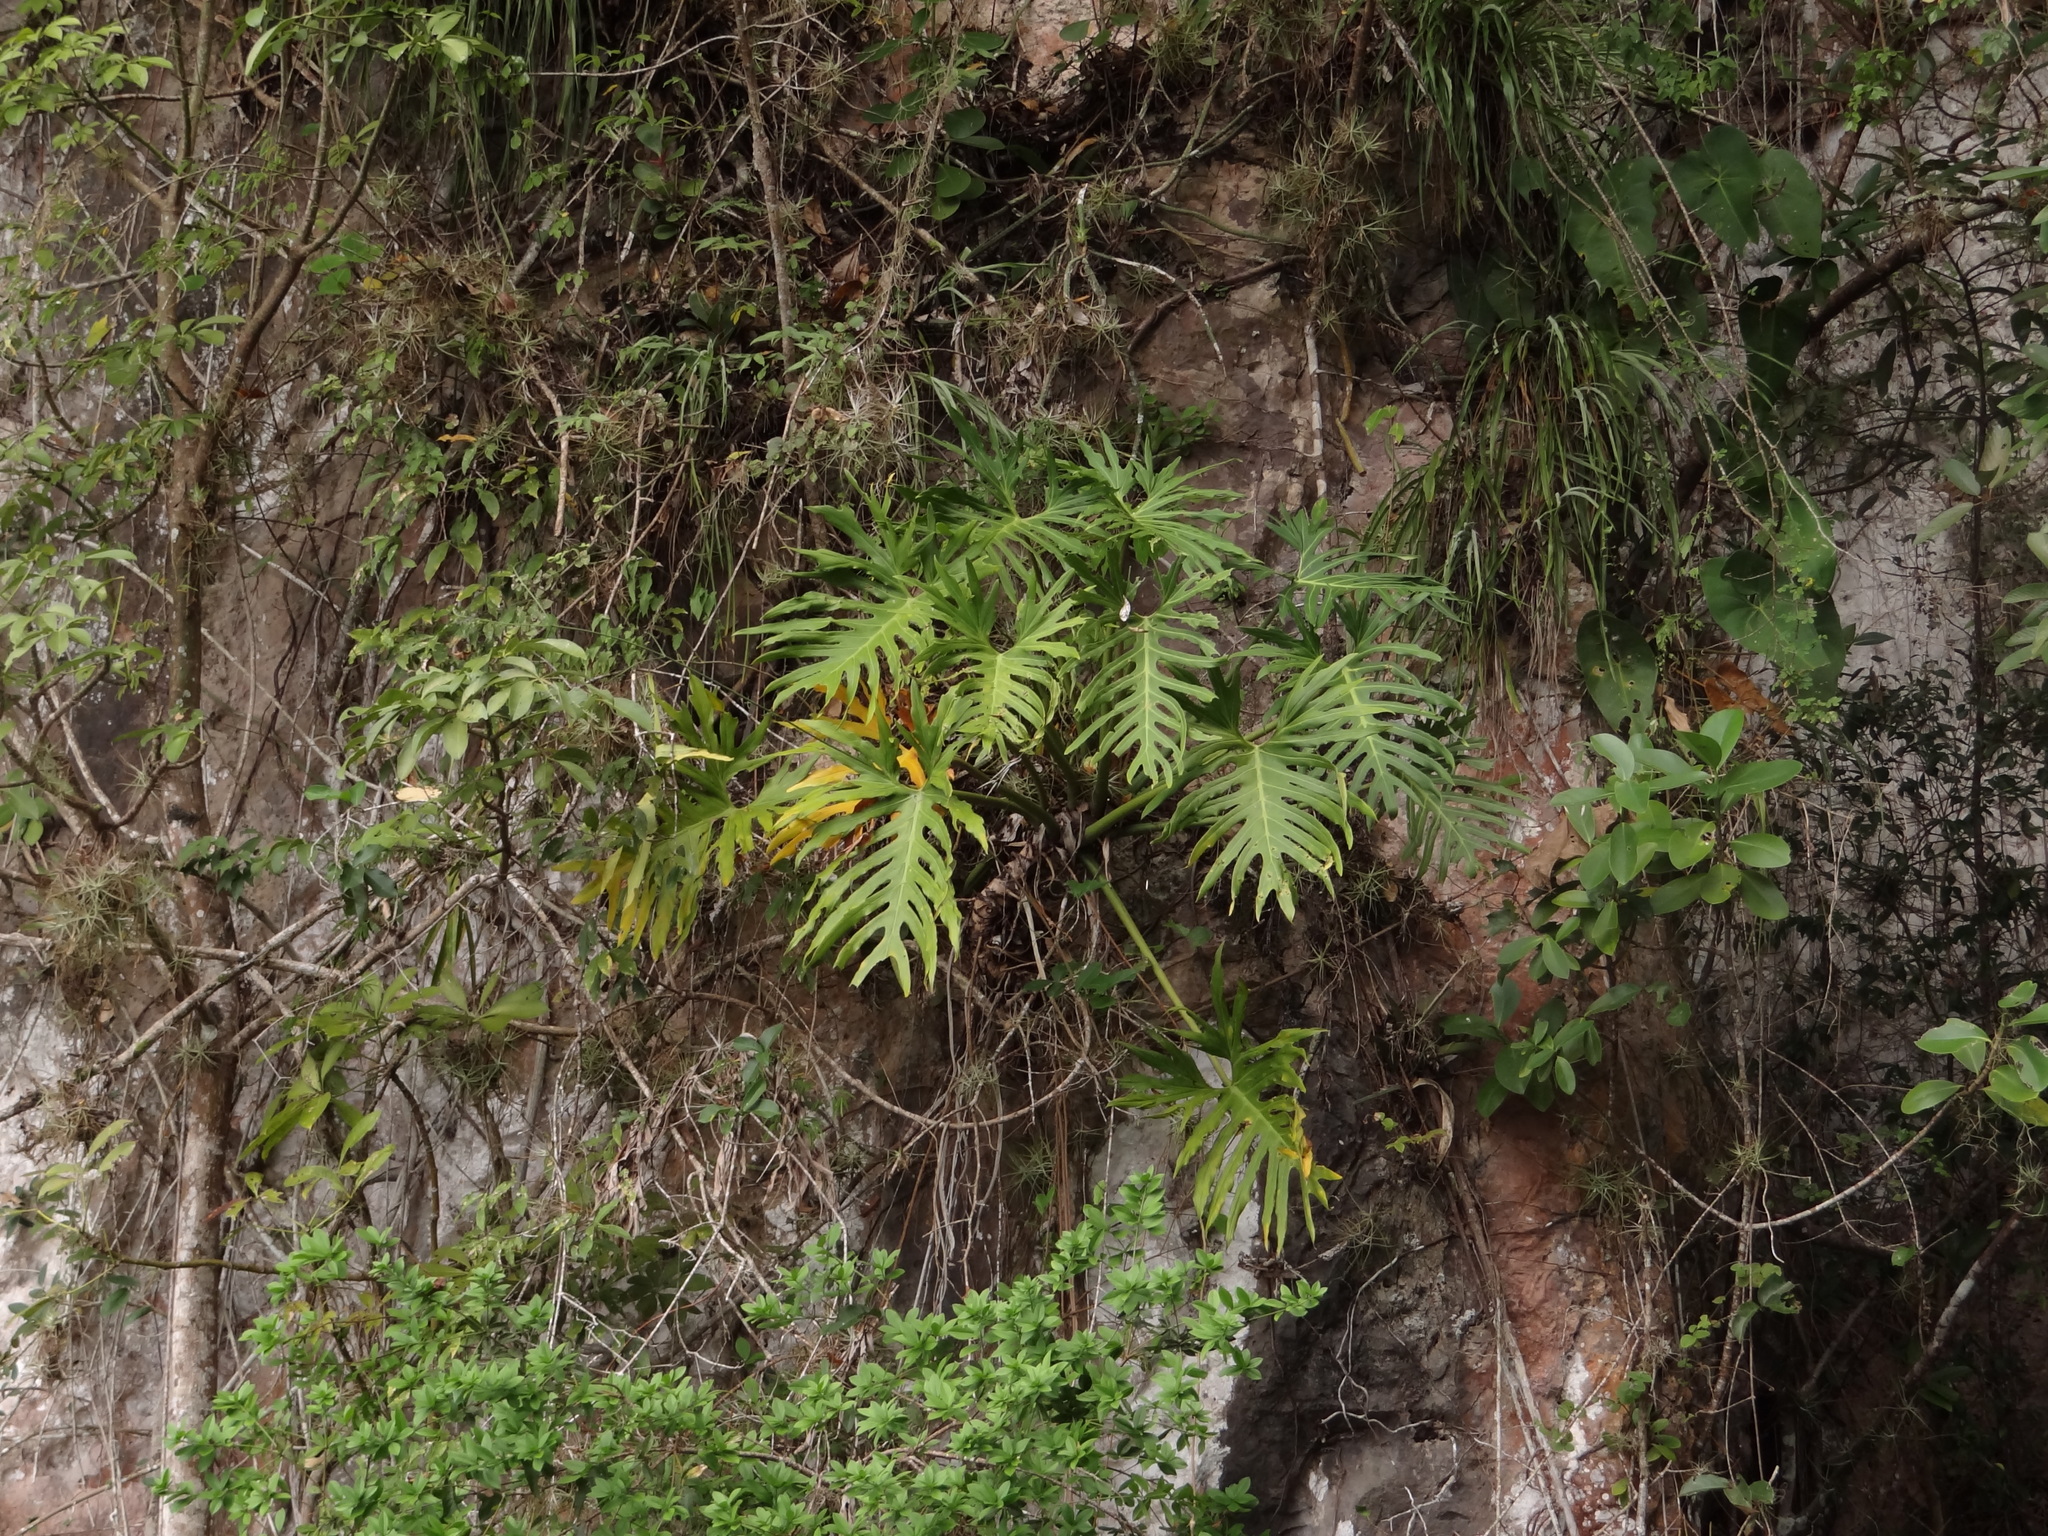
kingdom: Plantae
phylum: Tracheophyta
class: Liliopsida
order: Alismatales
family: Araceae
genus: Philodendron
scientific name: Philodendron radiatum
